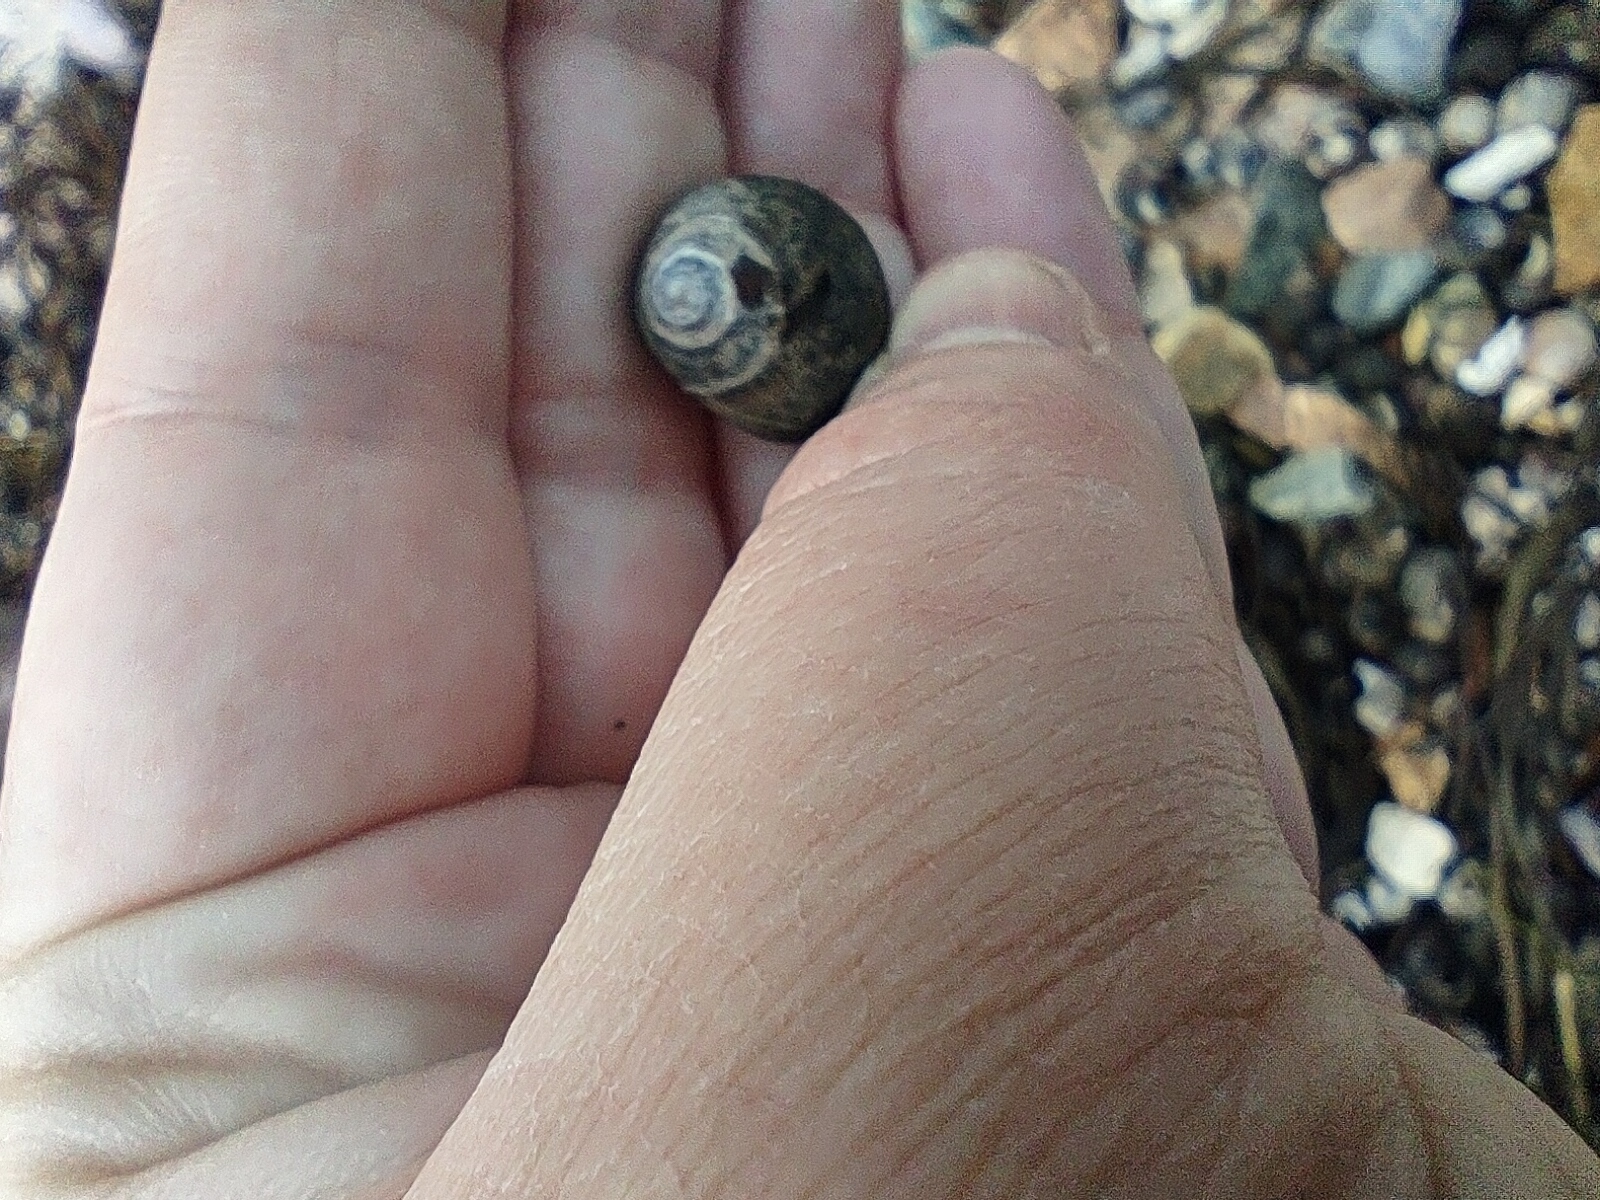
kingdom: Animalia
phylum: Mollusca
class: Gastropoda
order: Littorinimorpha
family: Littorinidae
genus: Littorina
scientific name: Littorina littorea
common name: Common periwinkle
